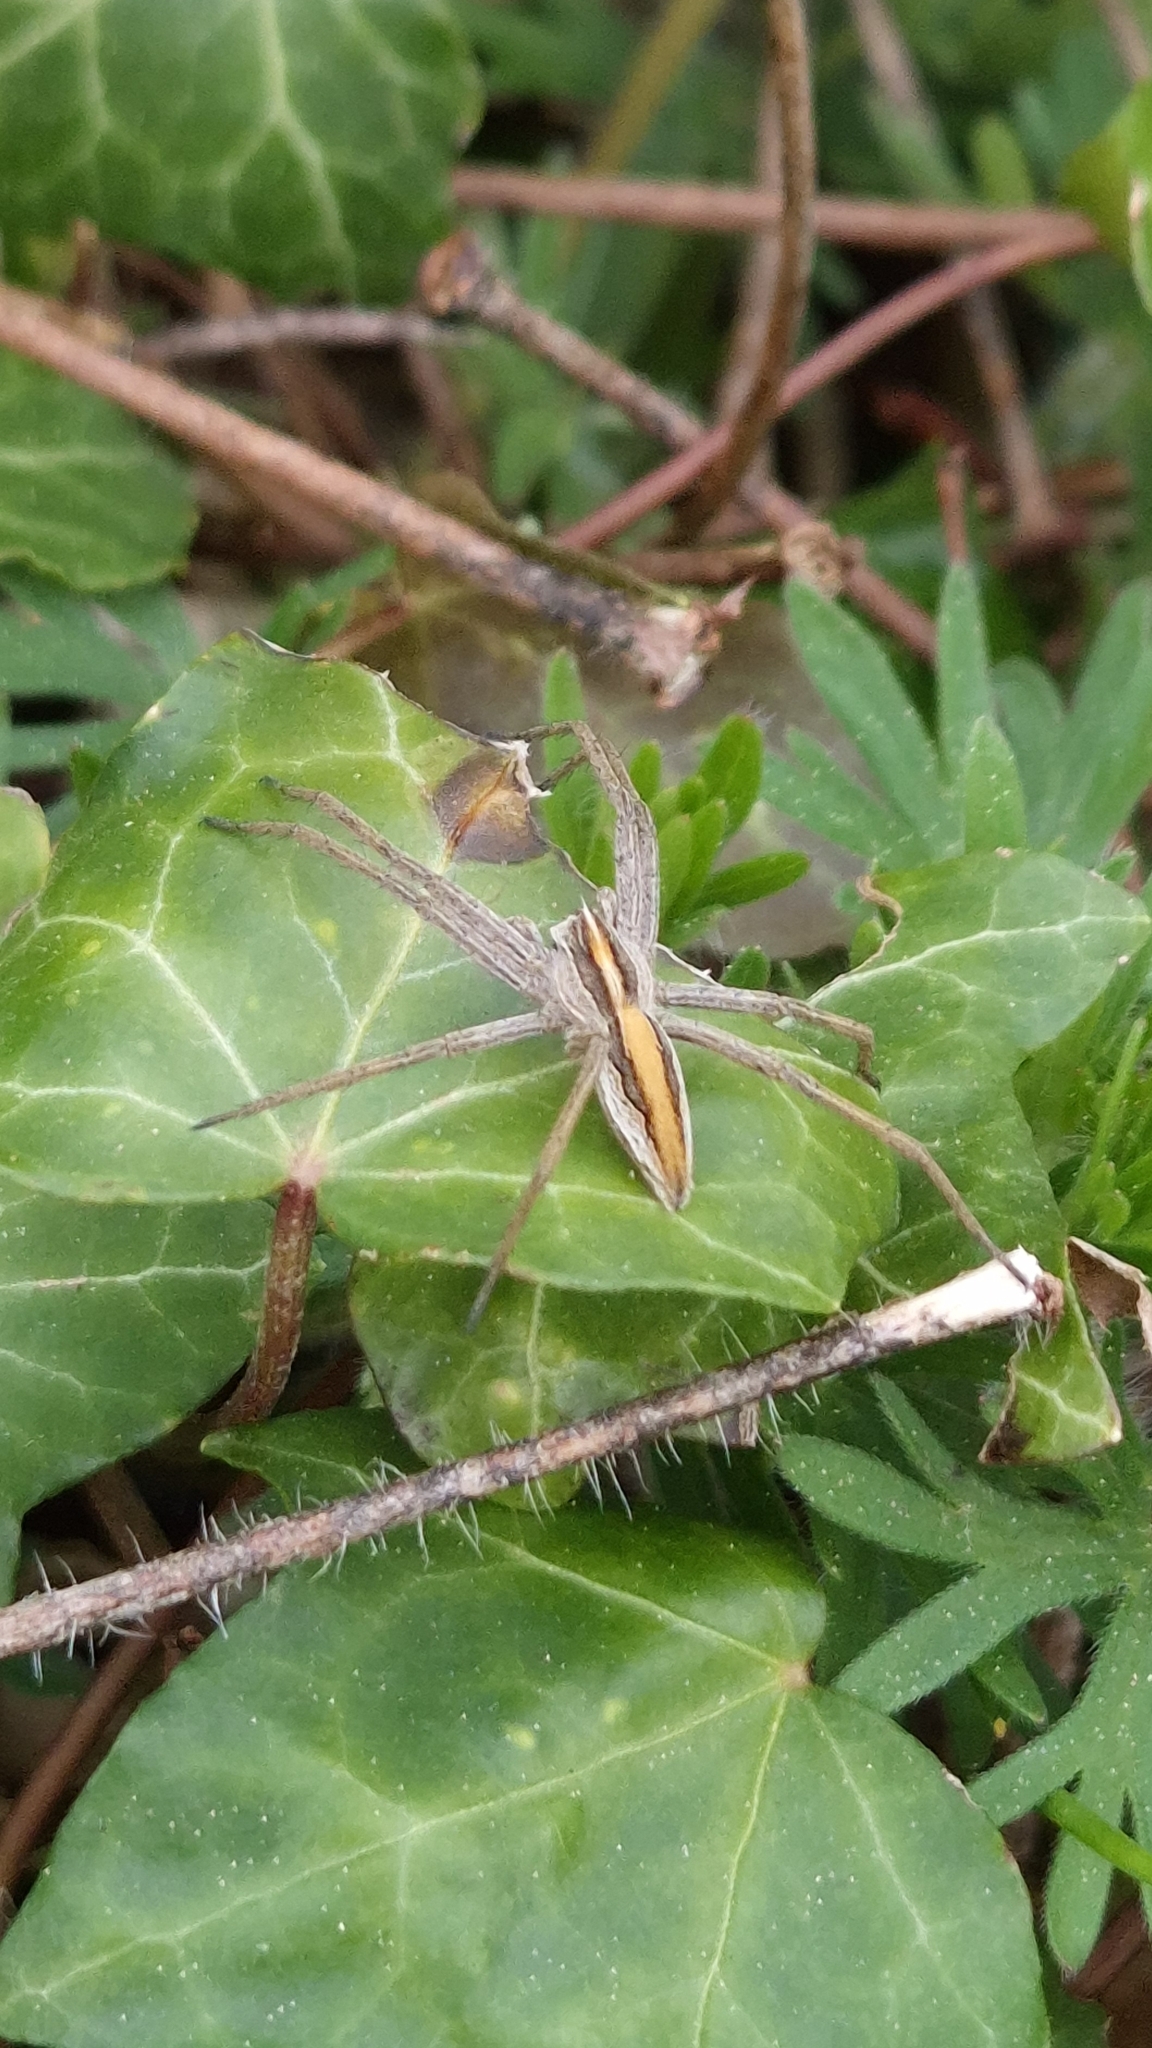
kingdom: Animalia
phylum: Arthropoda
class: Arachnida
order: Araneae
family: Pisauridae
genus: Pisaura
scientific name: Pisaura mirabilis
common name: Tent spider
